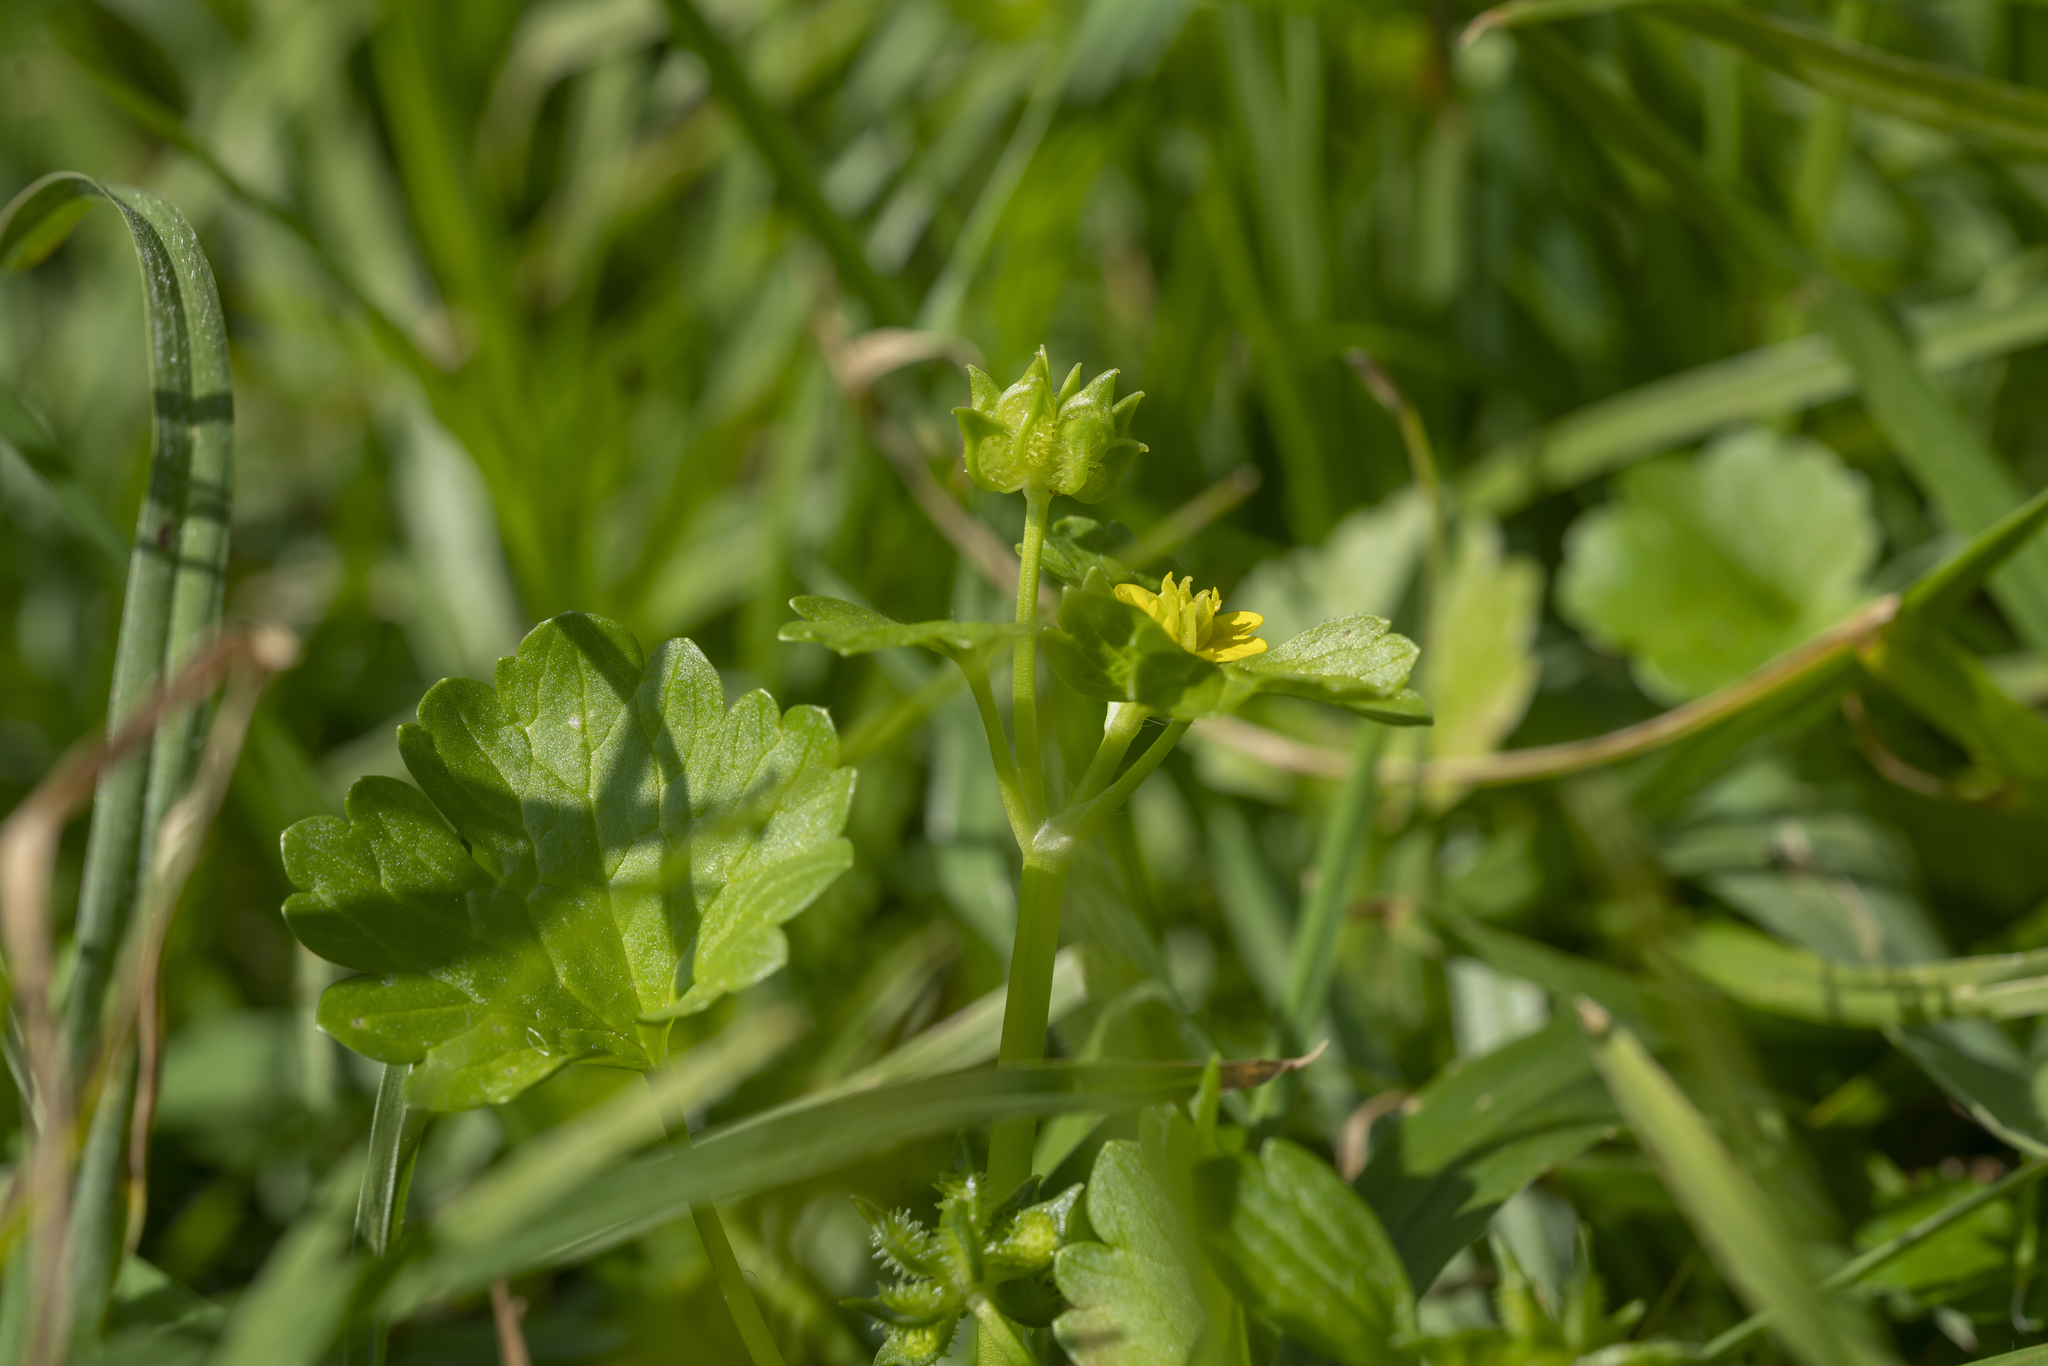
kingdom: Plantae
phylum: Tracheophyta
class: Magnoliopsida
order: Ranunculales
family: Ranunculaceae
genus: Ranunculus
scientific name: Ranunculus muricatus
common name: Rough-fruited buttercup
